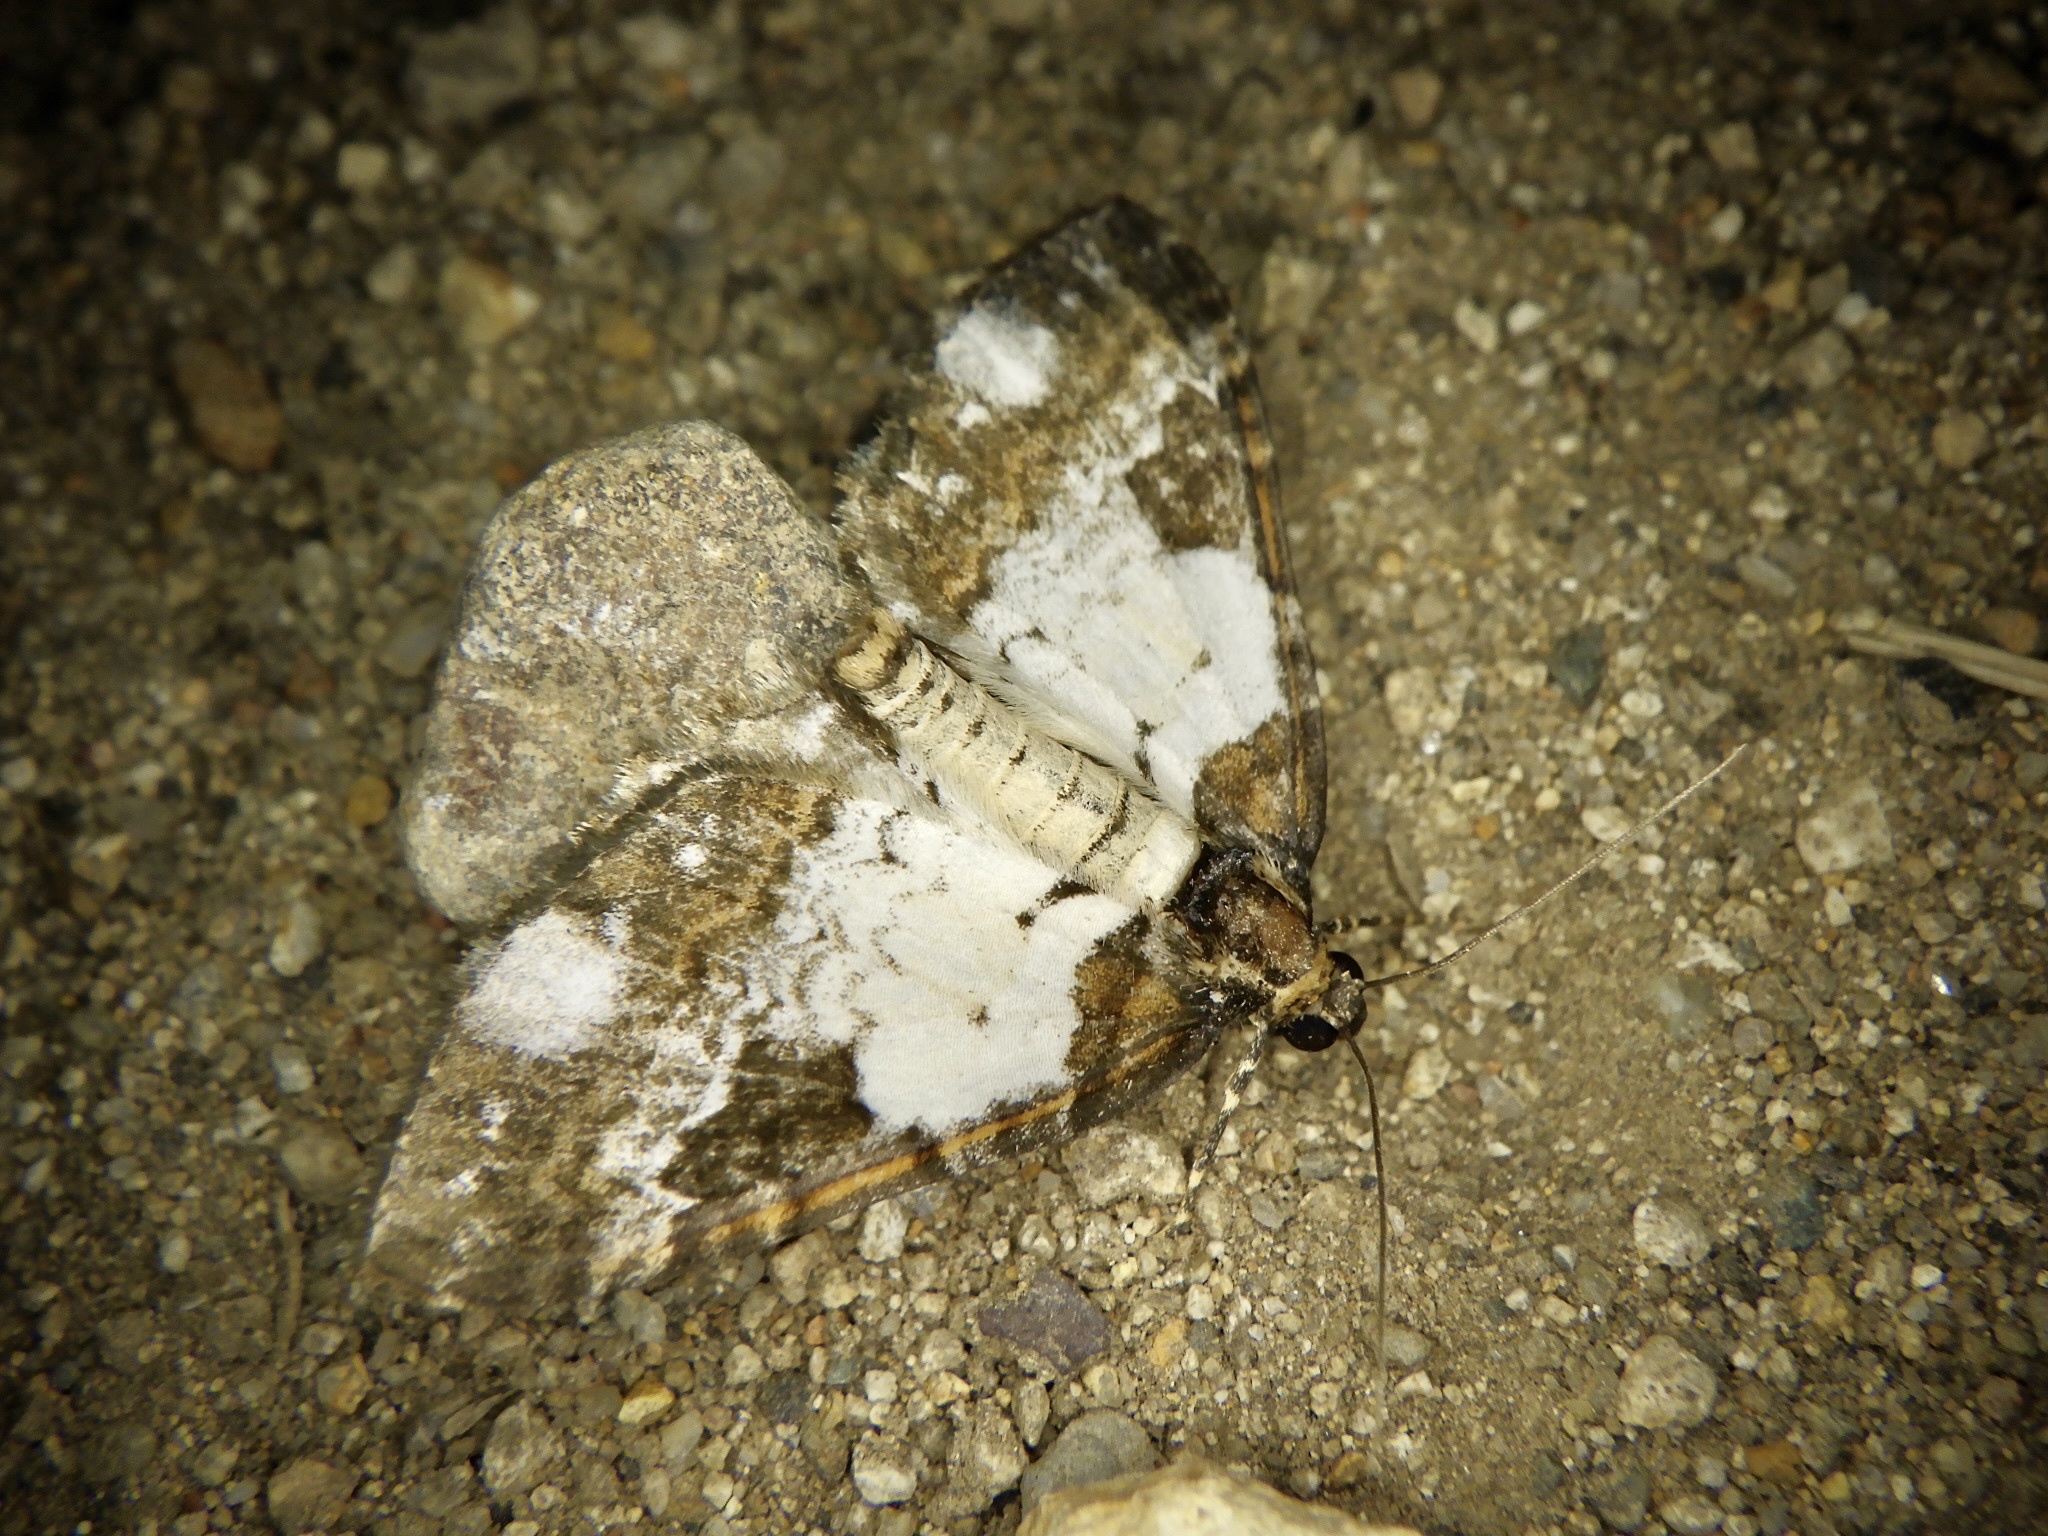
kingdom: Animalia
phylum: Arthropoda
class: Insecta
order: Lepidoptera
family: Geometridae
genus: Melanthia
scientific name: Melanthia procellata
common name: Pretty chalk carpet
